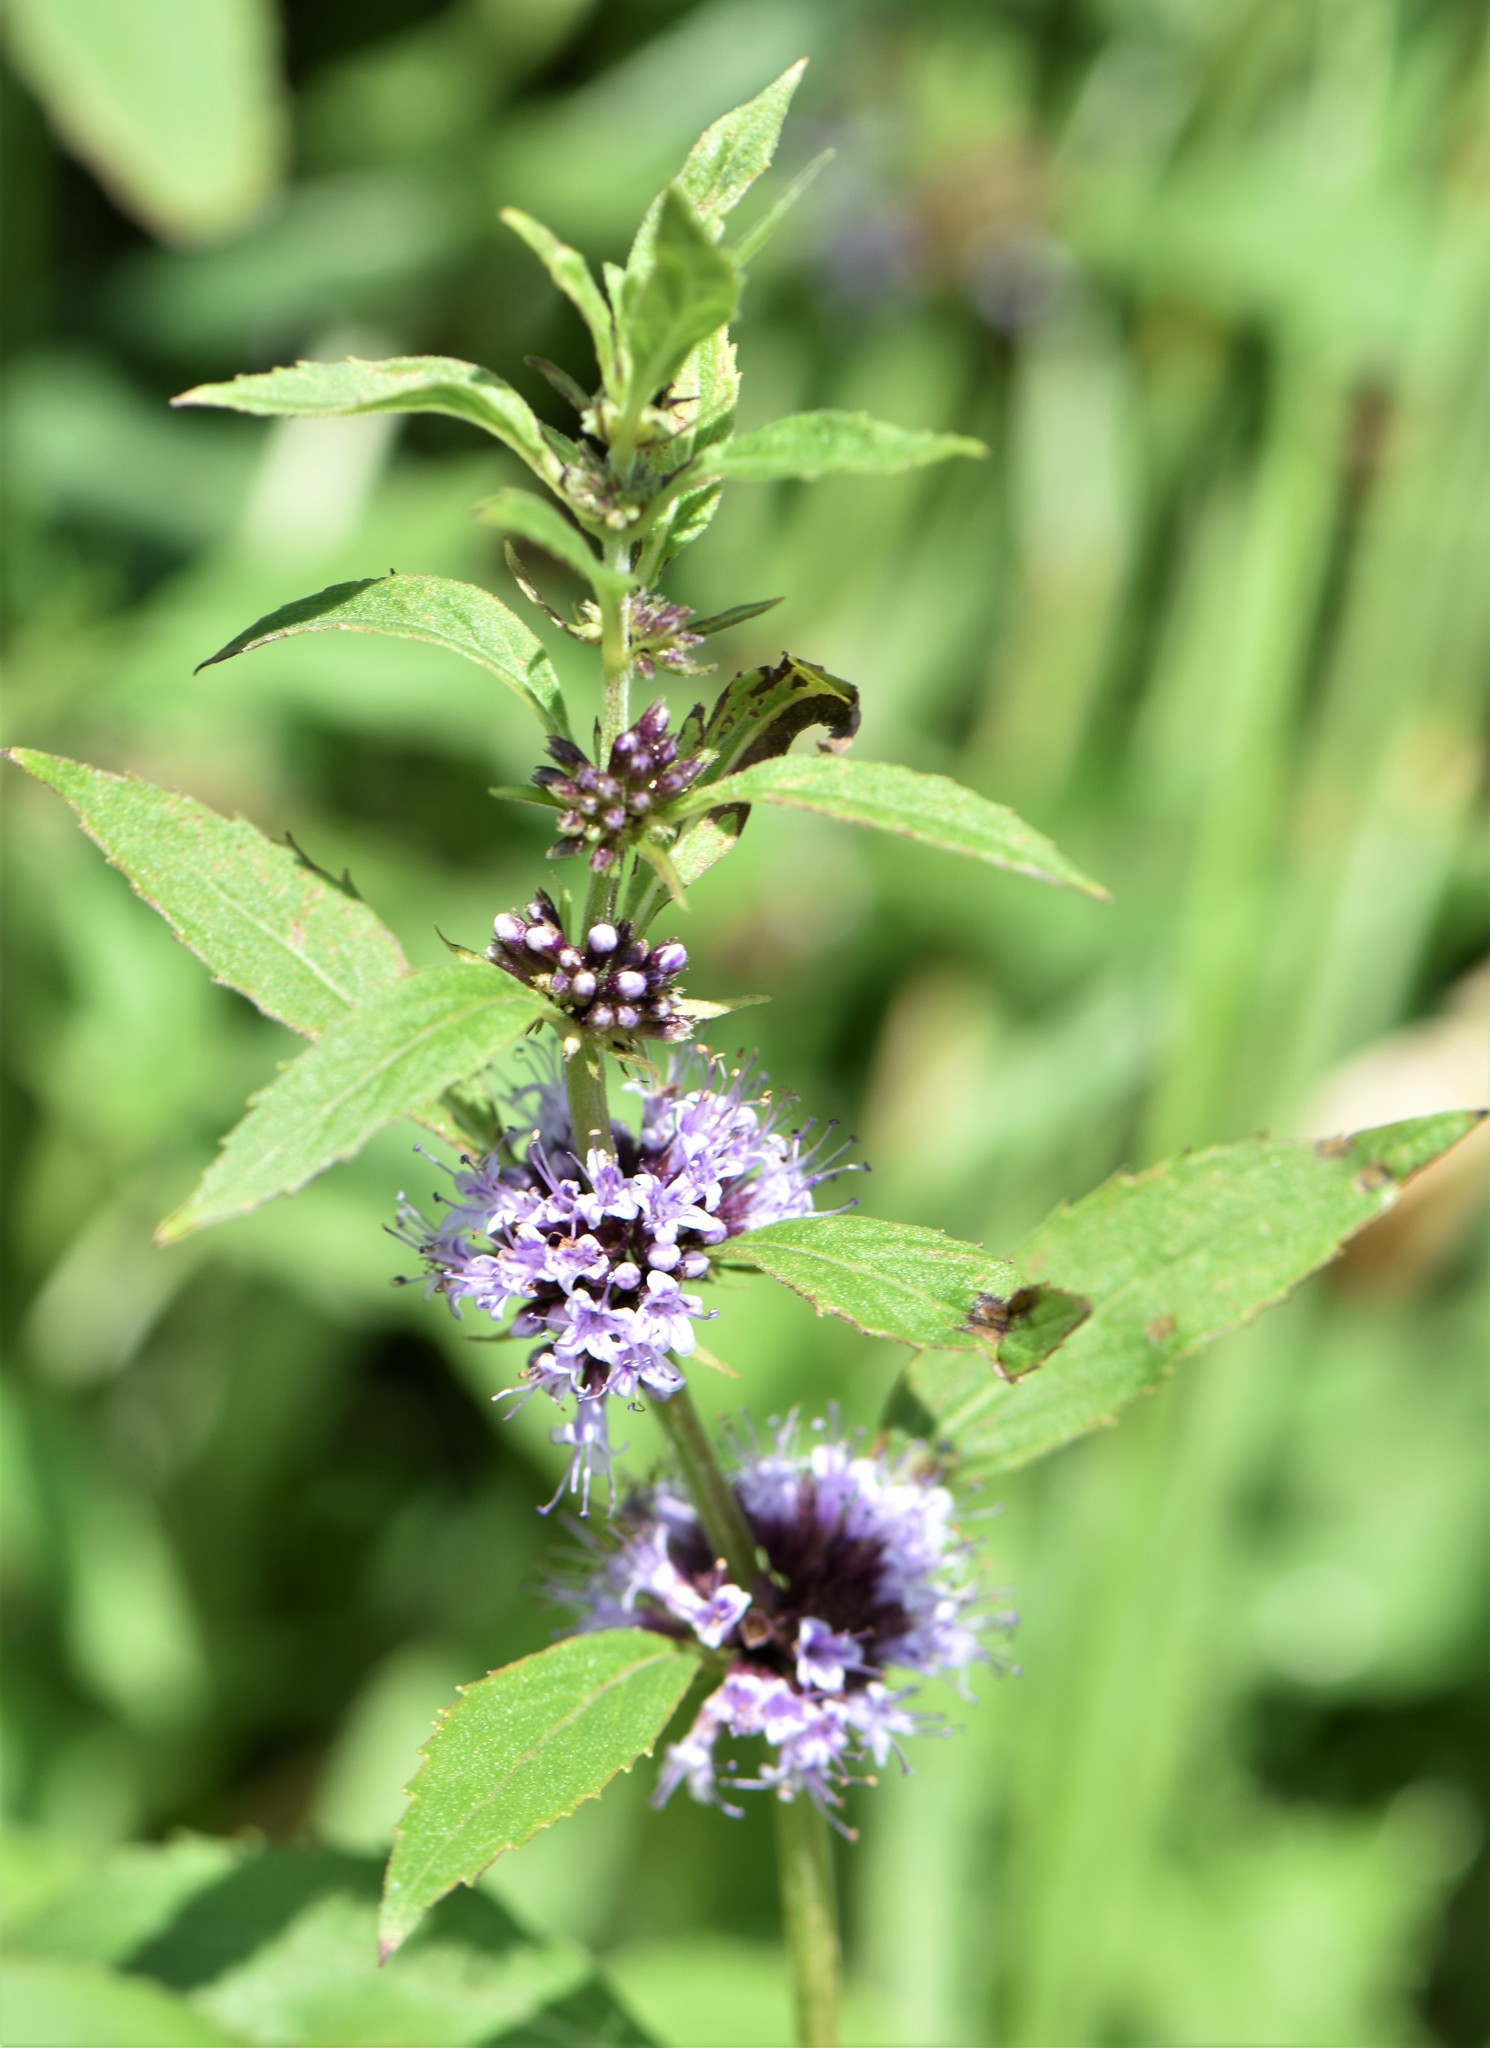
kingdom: Plantae
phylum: Tracheophyta
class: Magnoliopsida
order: Lamiales
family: Lamiaceae
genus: Mentha
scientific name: Mentha canadensis
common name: American corn mint
